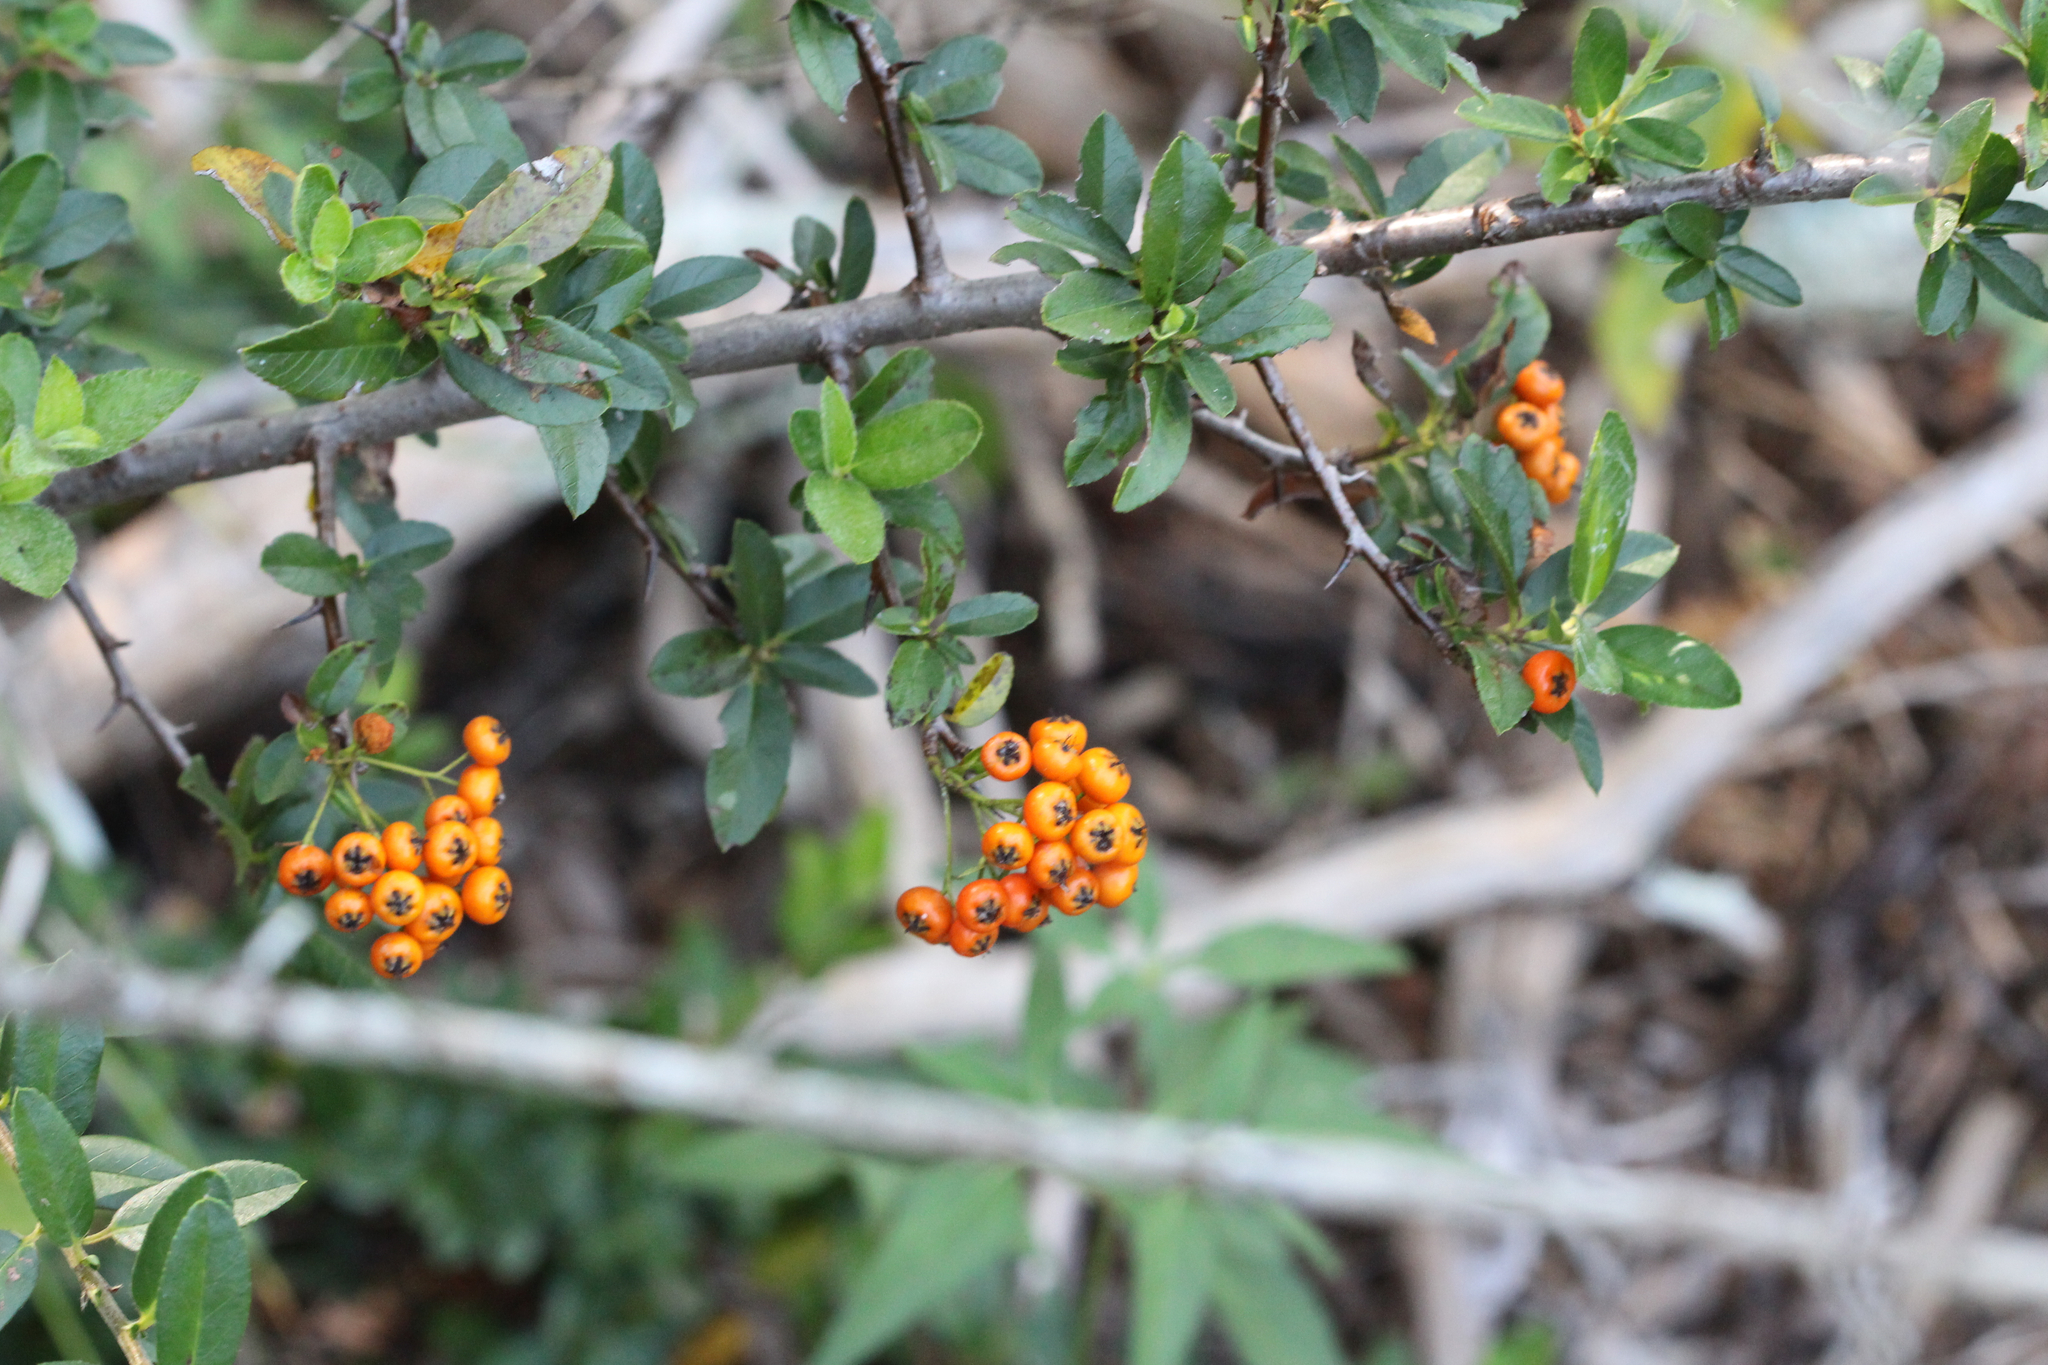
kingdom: Plantae
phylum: Tracheophyta
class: Magnoliopsida
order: Rosales
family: Rosaceae
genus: Pyracantha
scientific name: Pyracantha coccinea
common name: Firethorn
